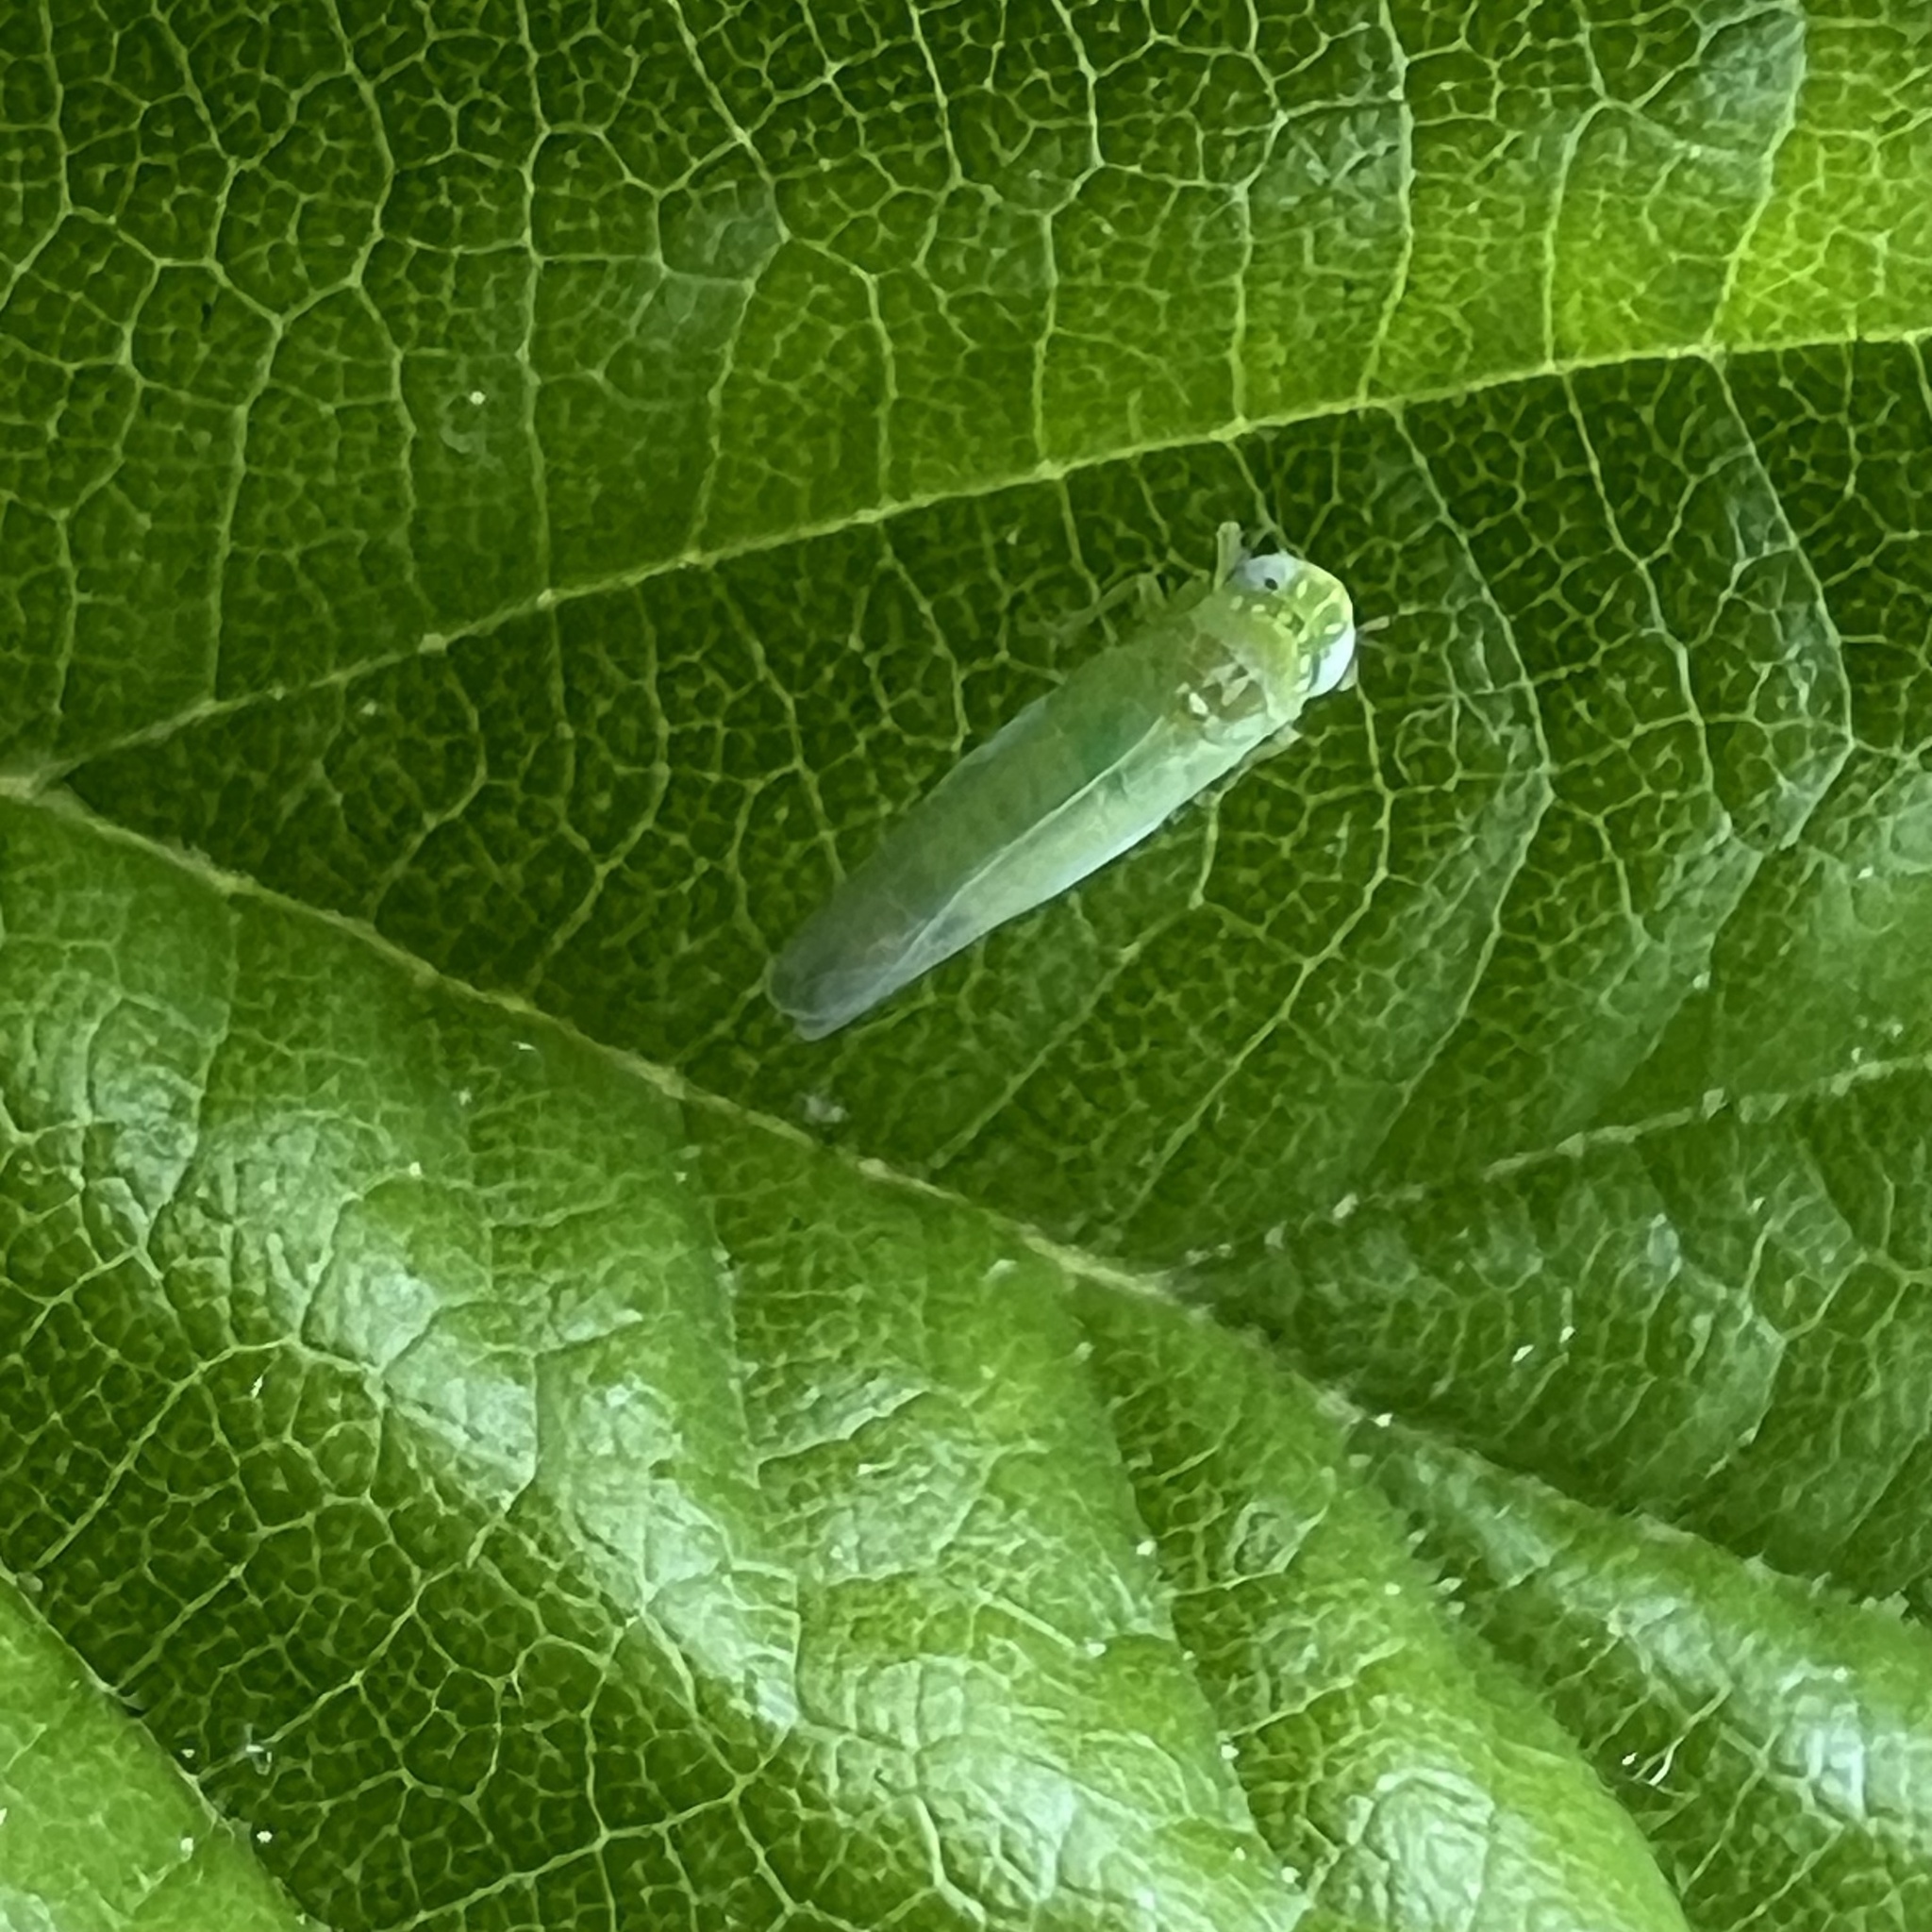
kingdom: Animalia
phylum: Arthropoda
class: Insecta
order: Hemiptera
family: Cicadellidae
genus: Empoasca
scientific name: Empoasca fabae
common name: Potato leafhopper
